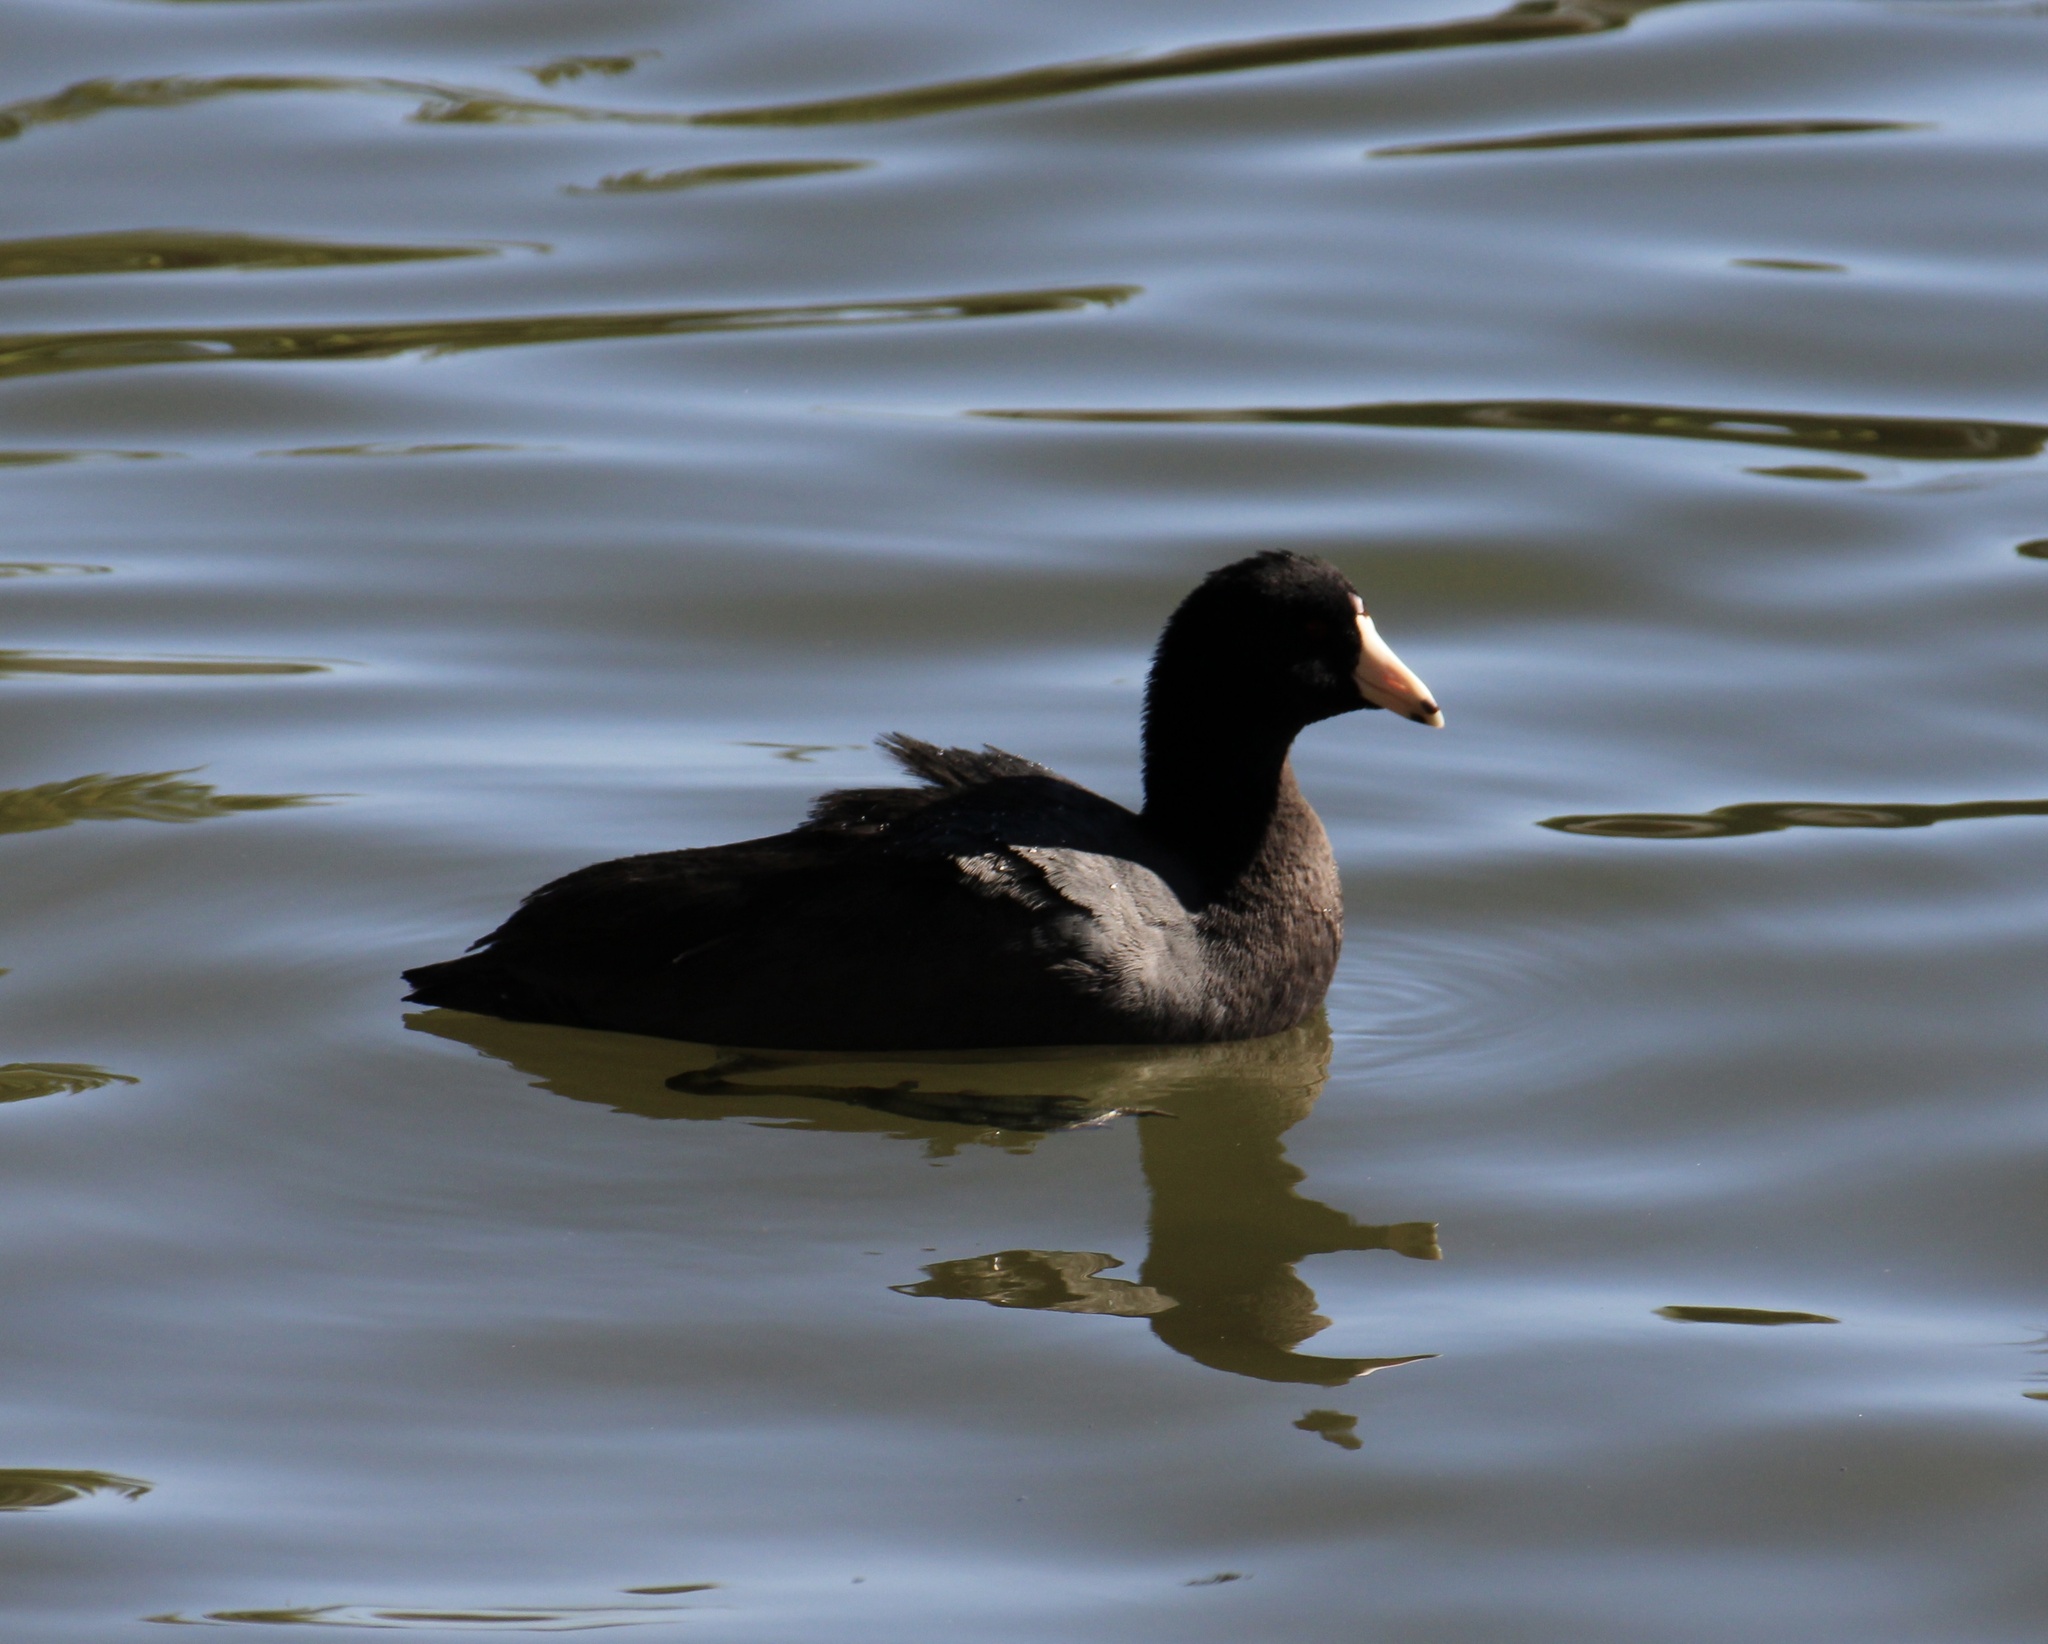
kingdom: Animalia
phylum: Chordata
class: Aves
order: Gruiformes
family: Rallidae
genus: Fulica
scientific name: Fulica americana
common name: American coot
